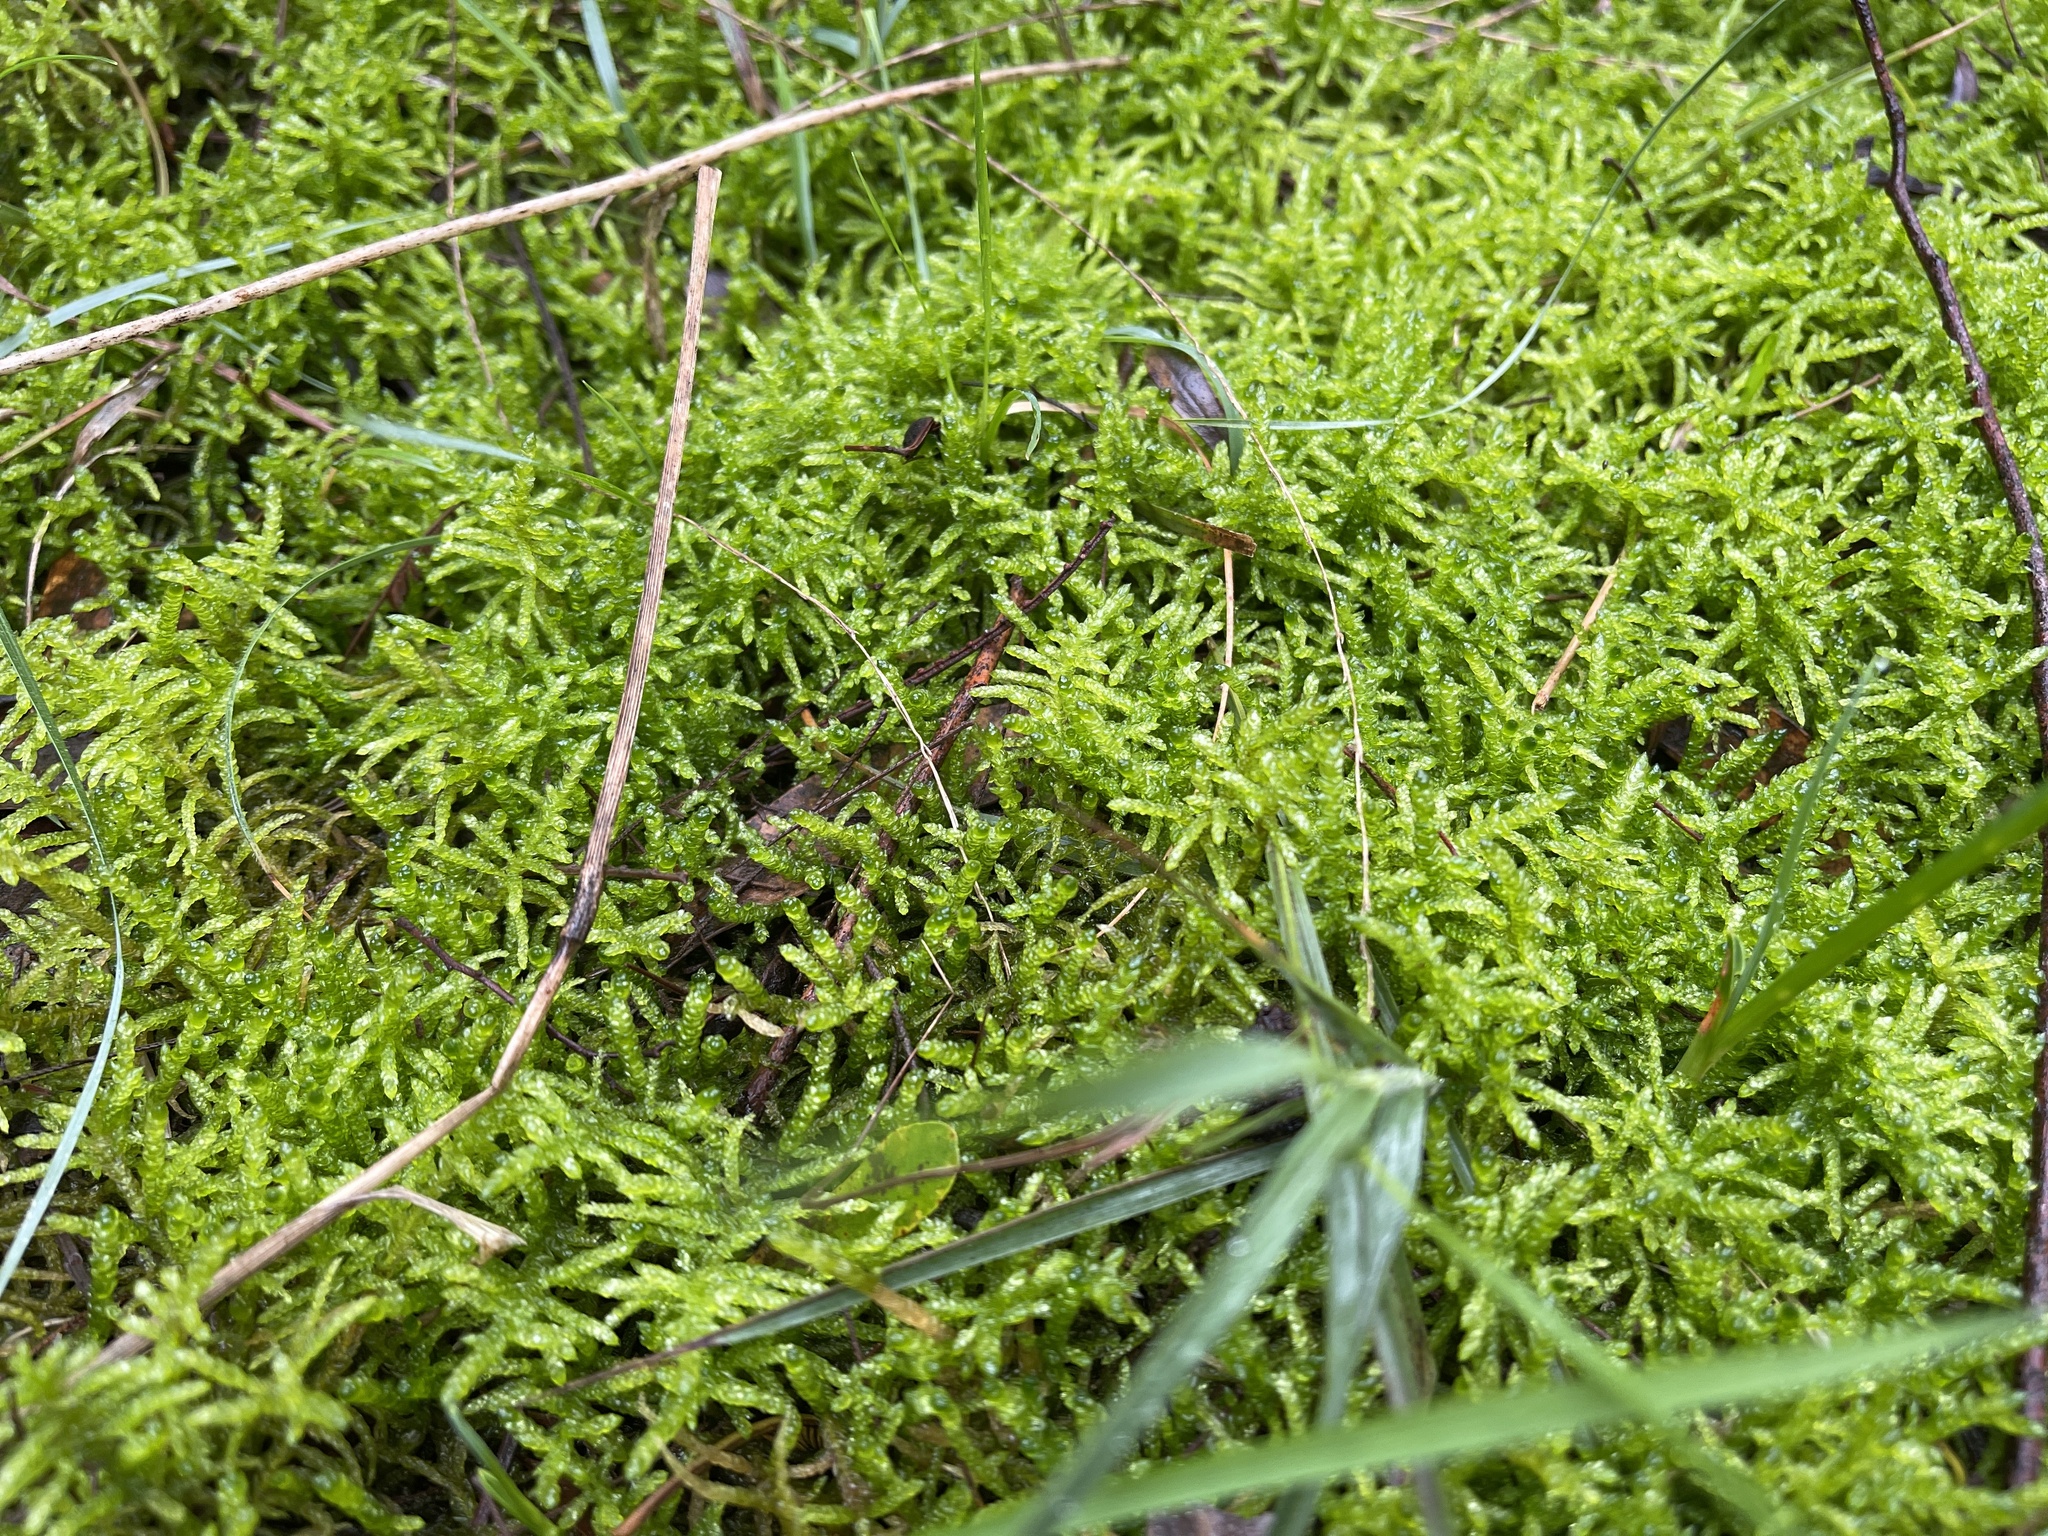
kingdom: Plantae
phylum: Bryophyta
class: Bryopsida
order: Hypnales
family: Brachytheciaceae
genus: Pseudoscleropodium
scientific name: Pseudoscleropodium purum
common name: Neat feather-moss
